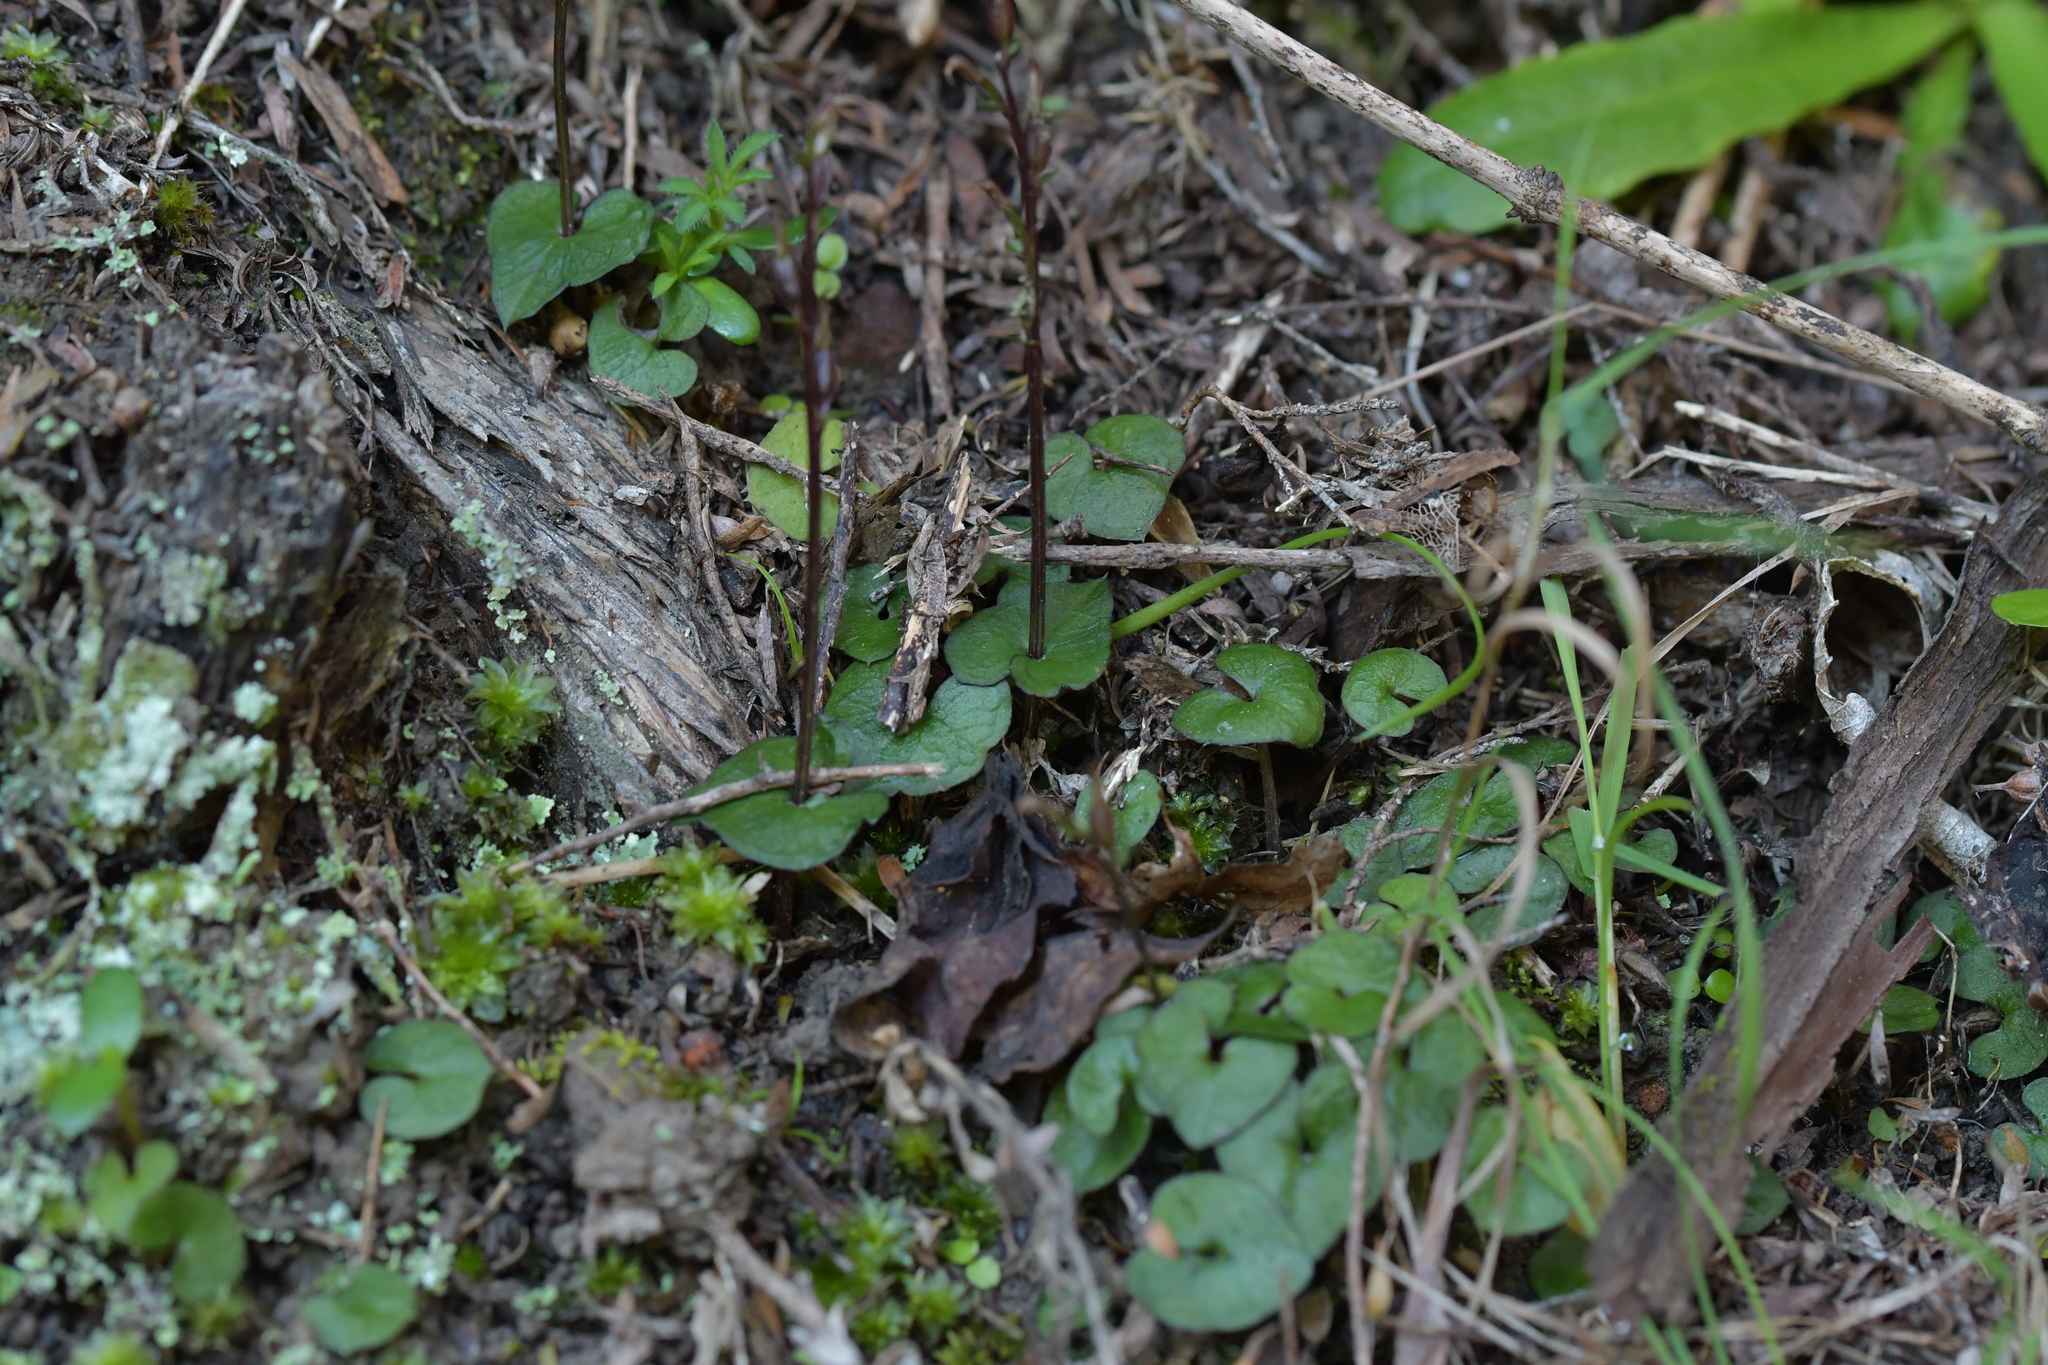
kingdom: Plantae
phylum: Tracheophyta
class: Liliopsida
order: Asparagales
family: Orchidaceae
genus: Acianthus
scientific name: Acianthus sinclairii
